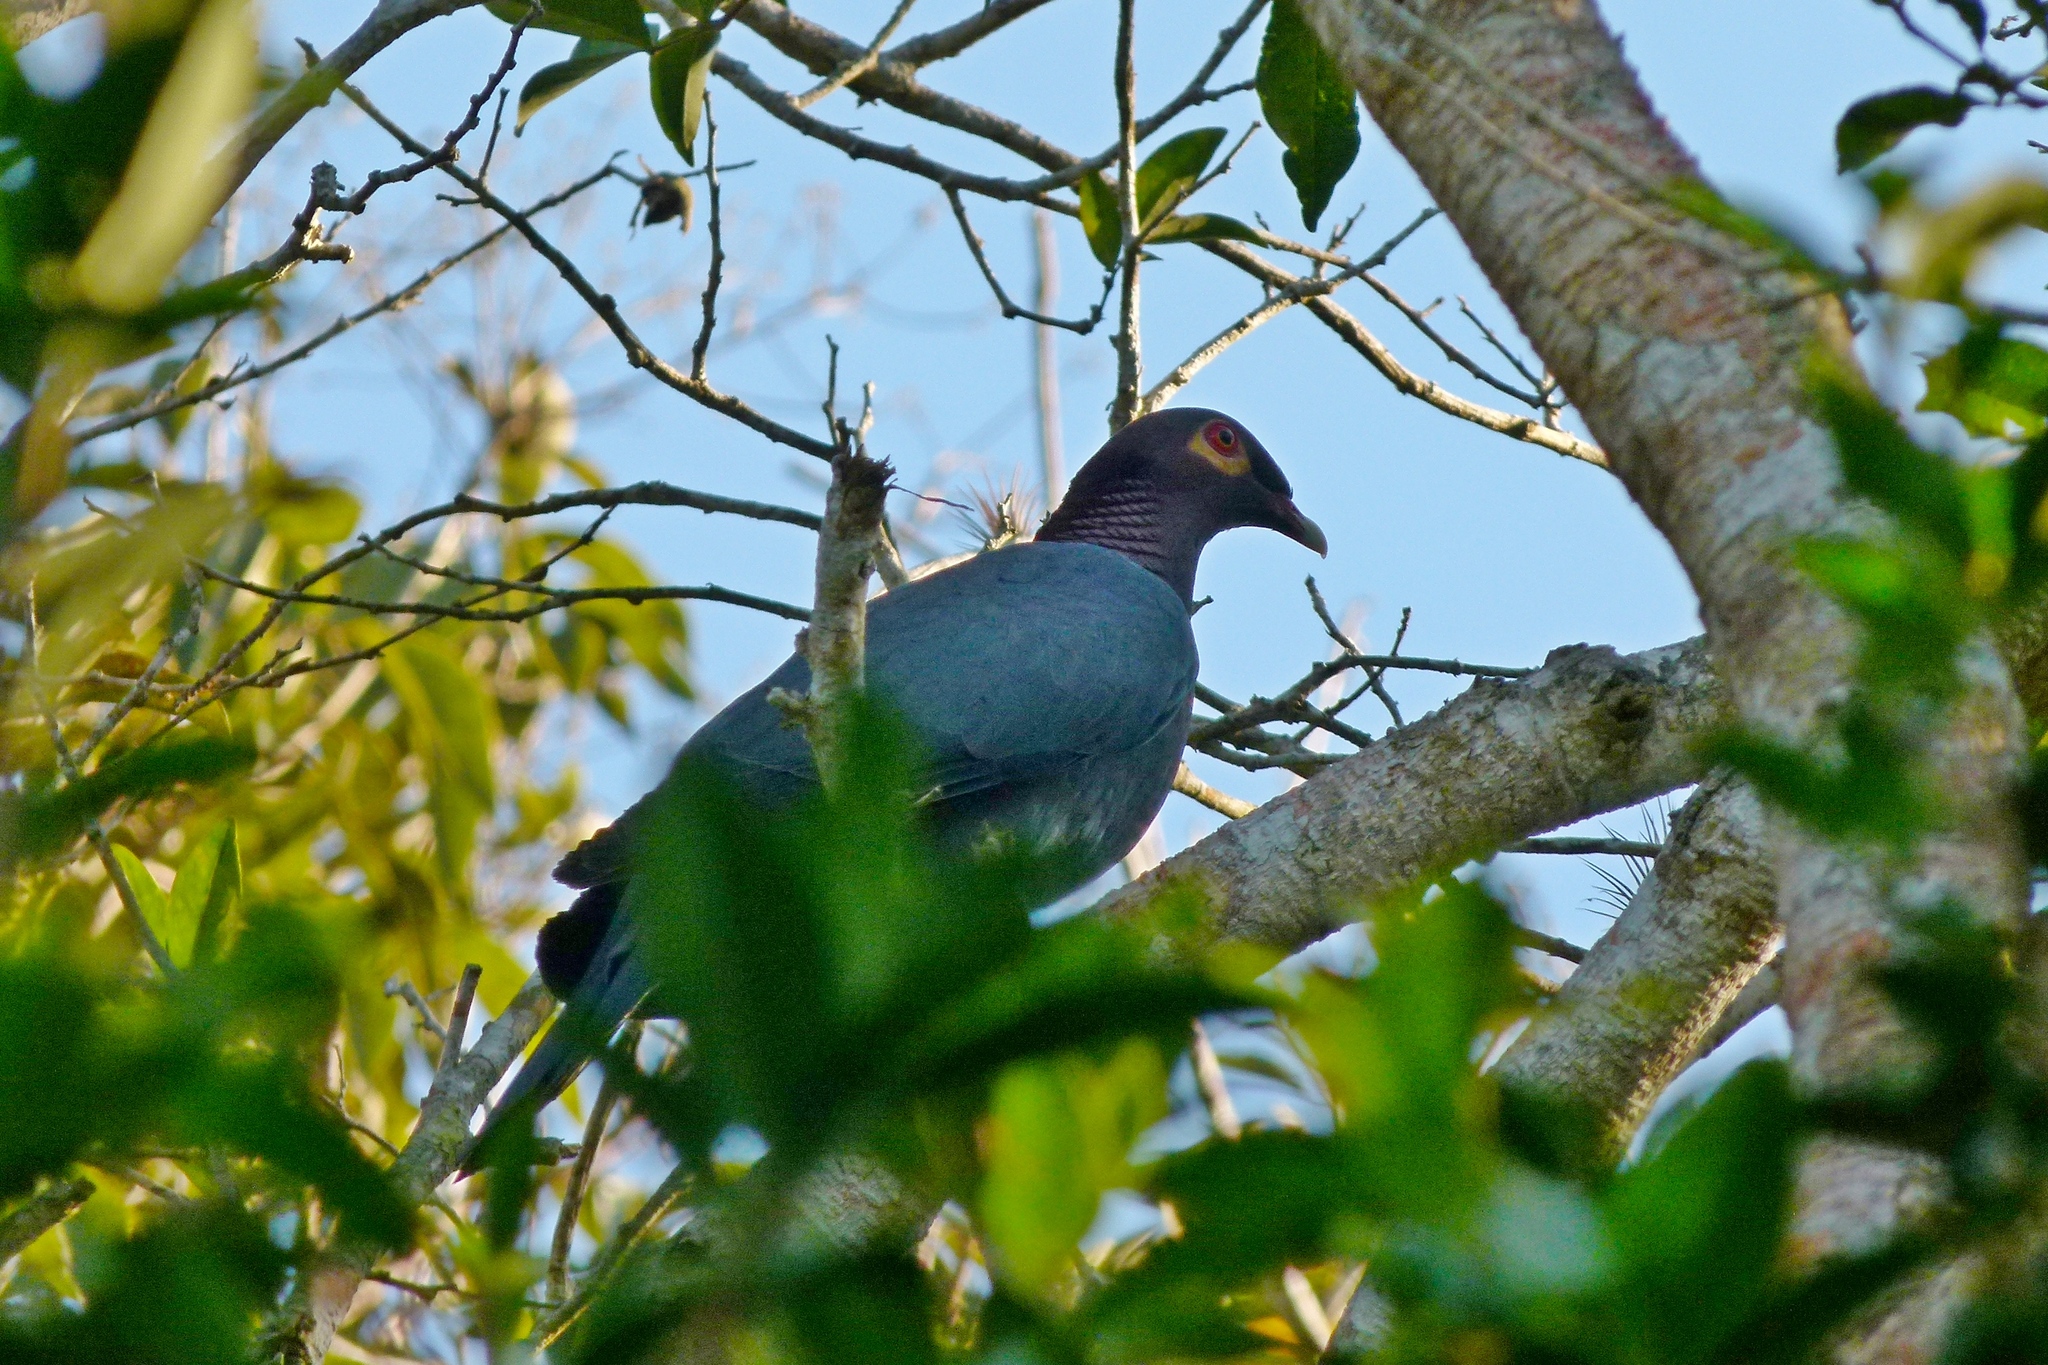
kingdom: Animalia
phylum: Chordata
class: Aves
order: Columbiformes
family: Columbidae
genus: Patagioenas
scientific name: Patagioenas squamosa
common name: Scaly-naped pigeon
